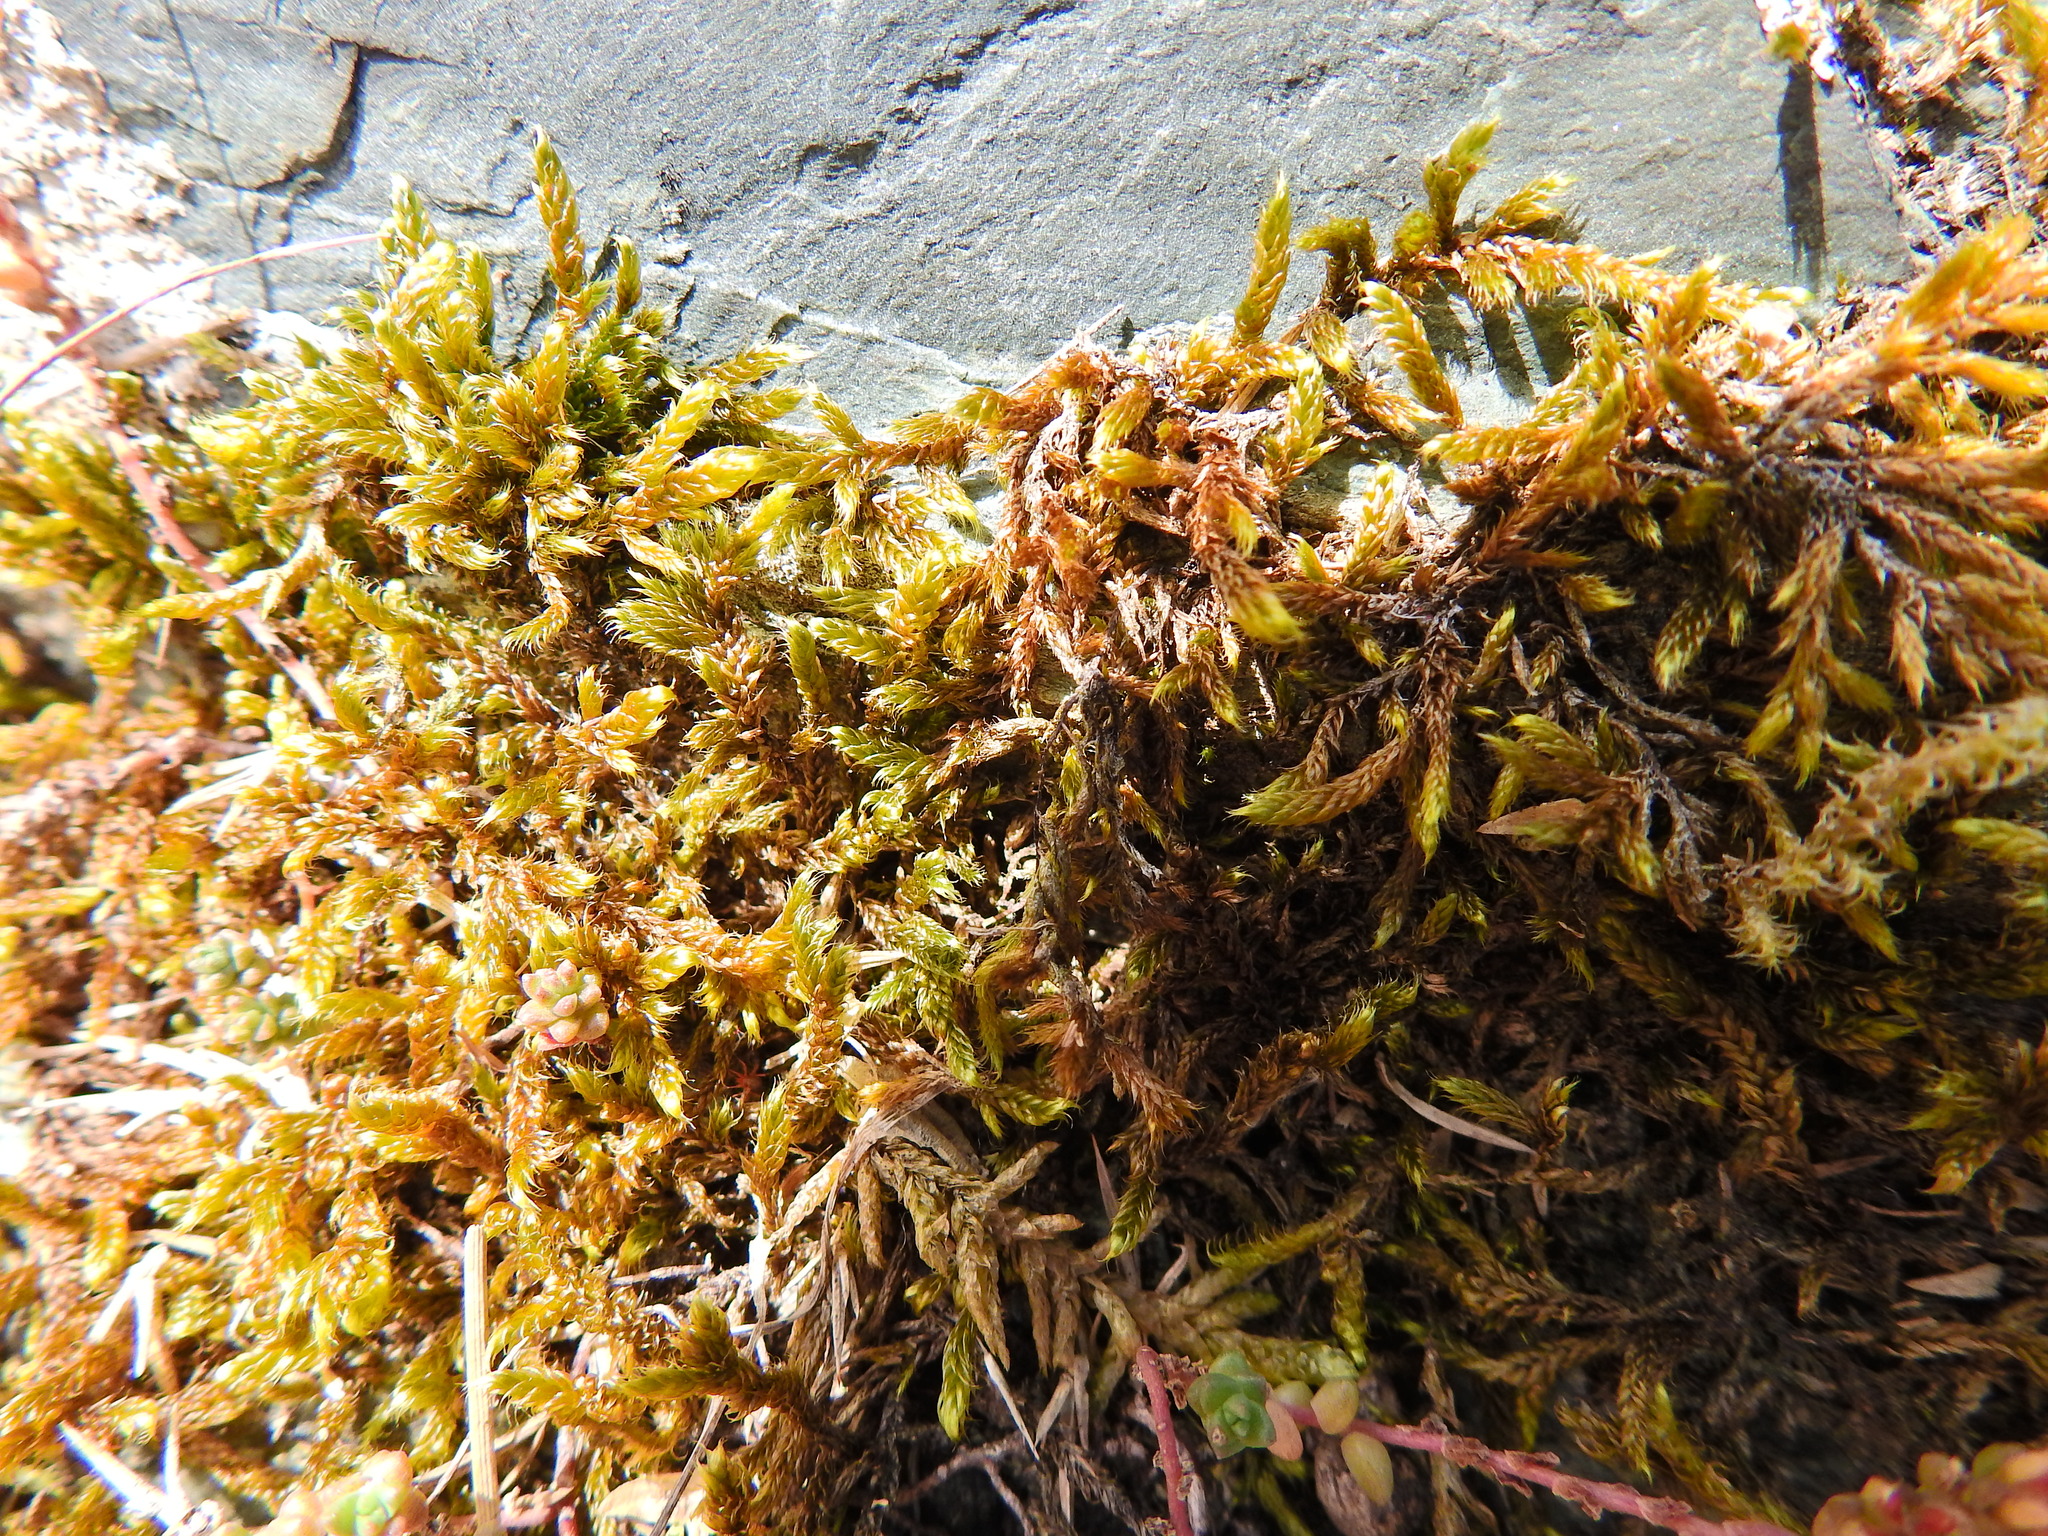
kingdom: Plantae
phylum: Bryophyta
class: Bryopsida
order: Hypnales
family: Hypnaceae
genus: Hypnum
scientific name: Hypnum cupressiforme
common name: Cypress-leaved plait-moss
